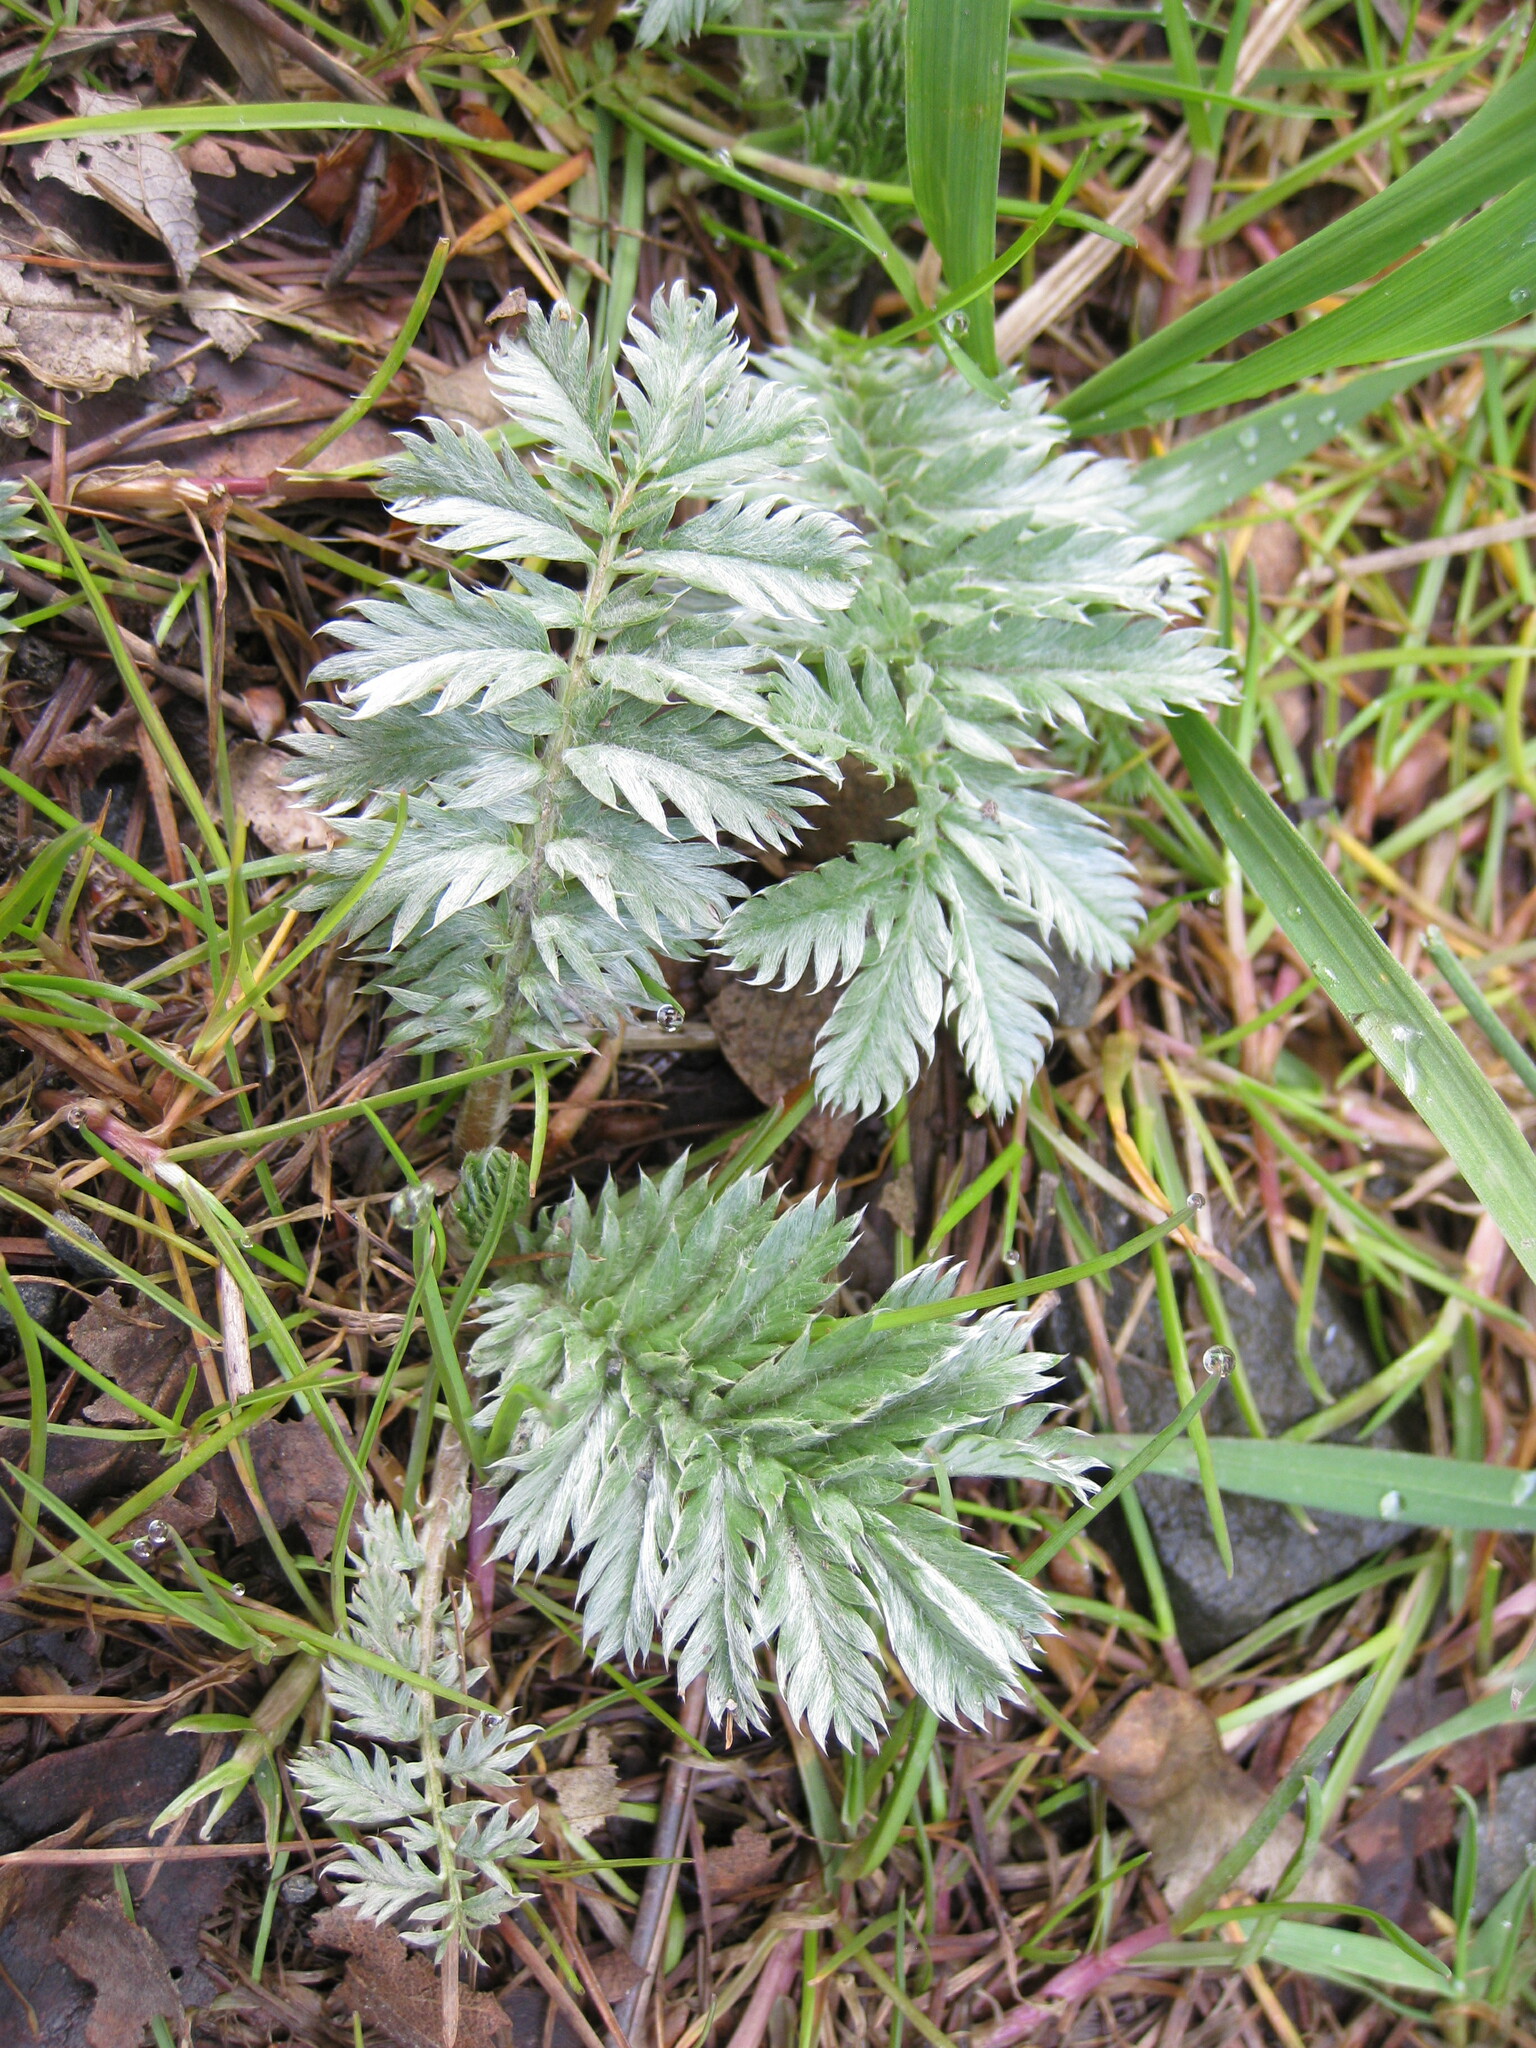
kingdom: Plantae
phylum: Tracheophyta
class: Magnoliopsida
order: Rosales
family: Rosaceae
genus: Argentina
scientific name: Argentina anserina
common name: Common silverweed
